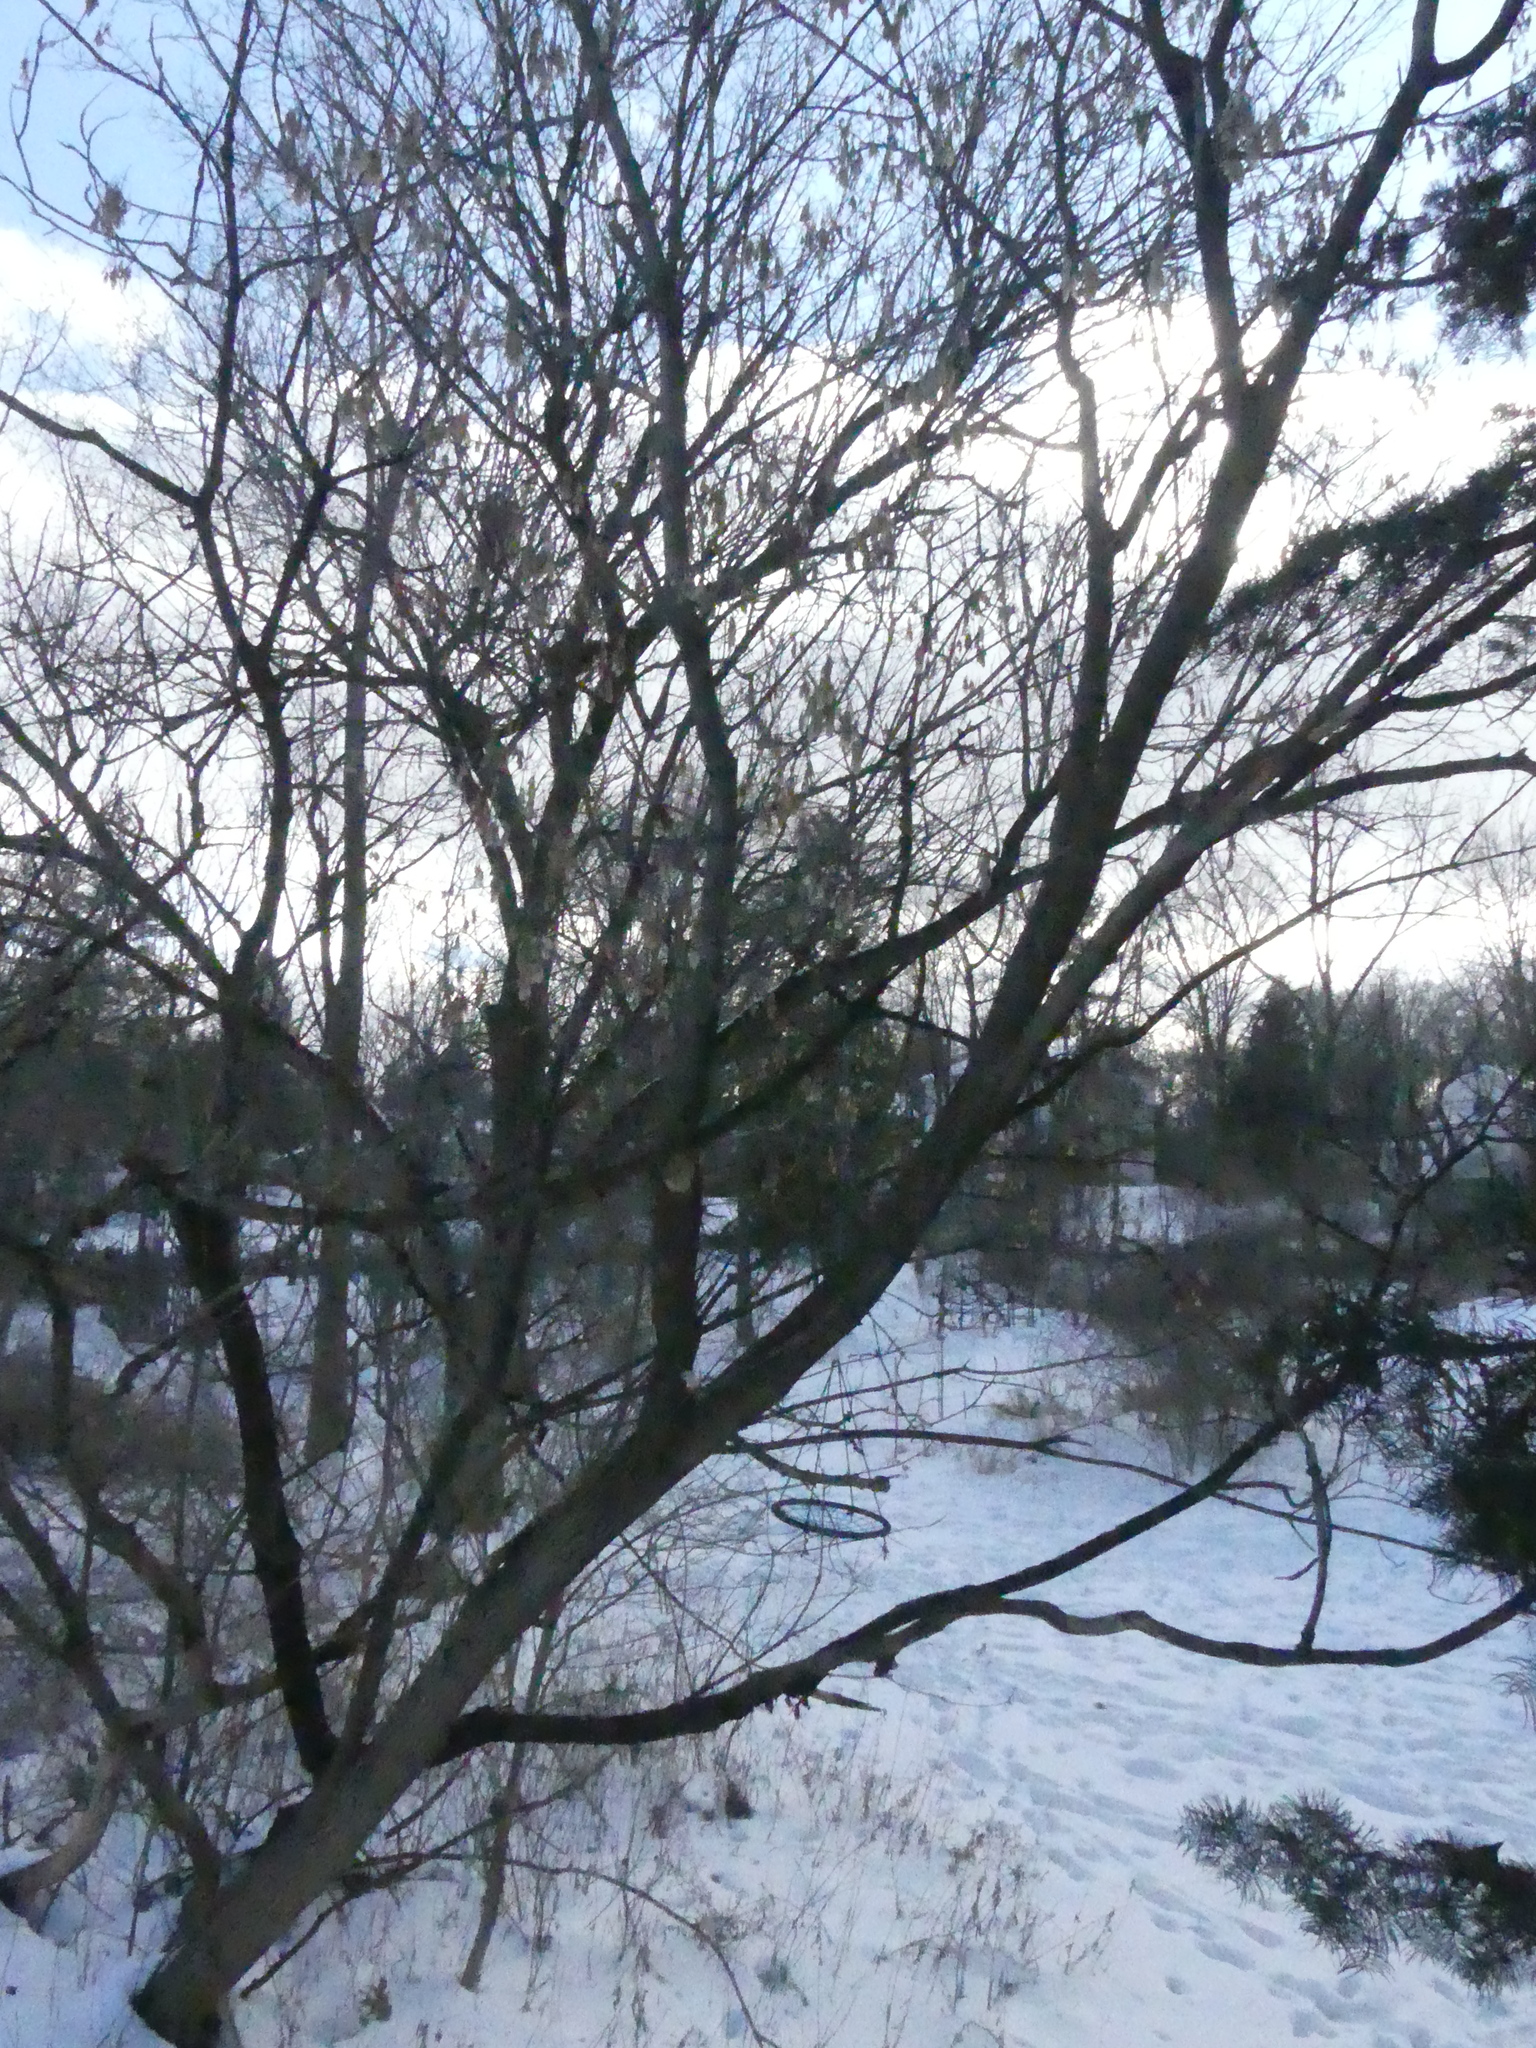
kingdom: Plantae
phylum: Tracheophyta
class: Magnoliopsida
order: Sapindales
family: Sapindaceae
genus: Acer
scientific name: Acer negundo
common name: Ashleaf maple
